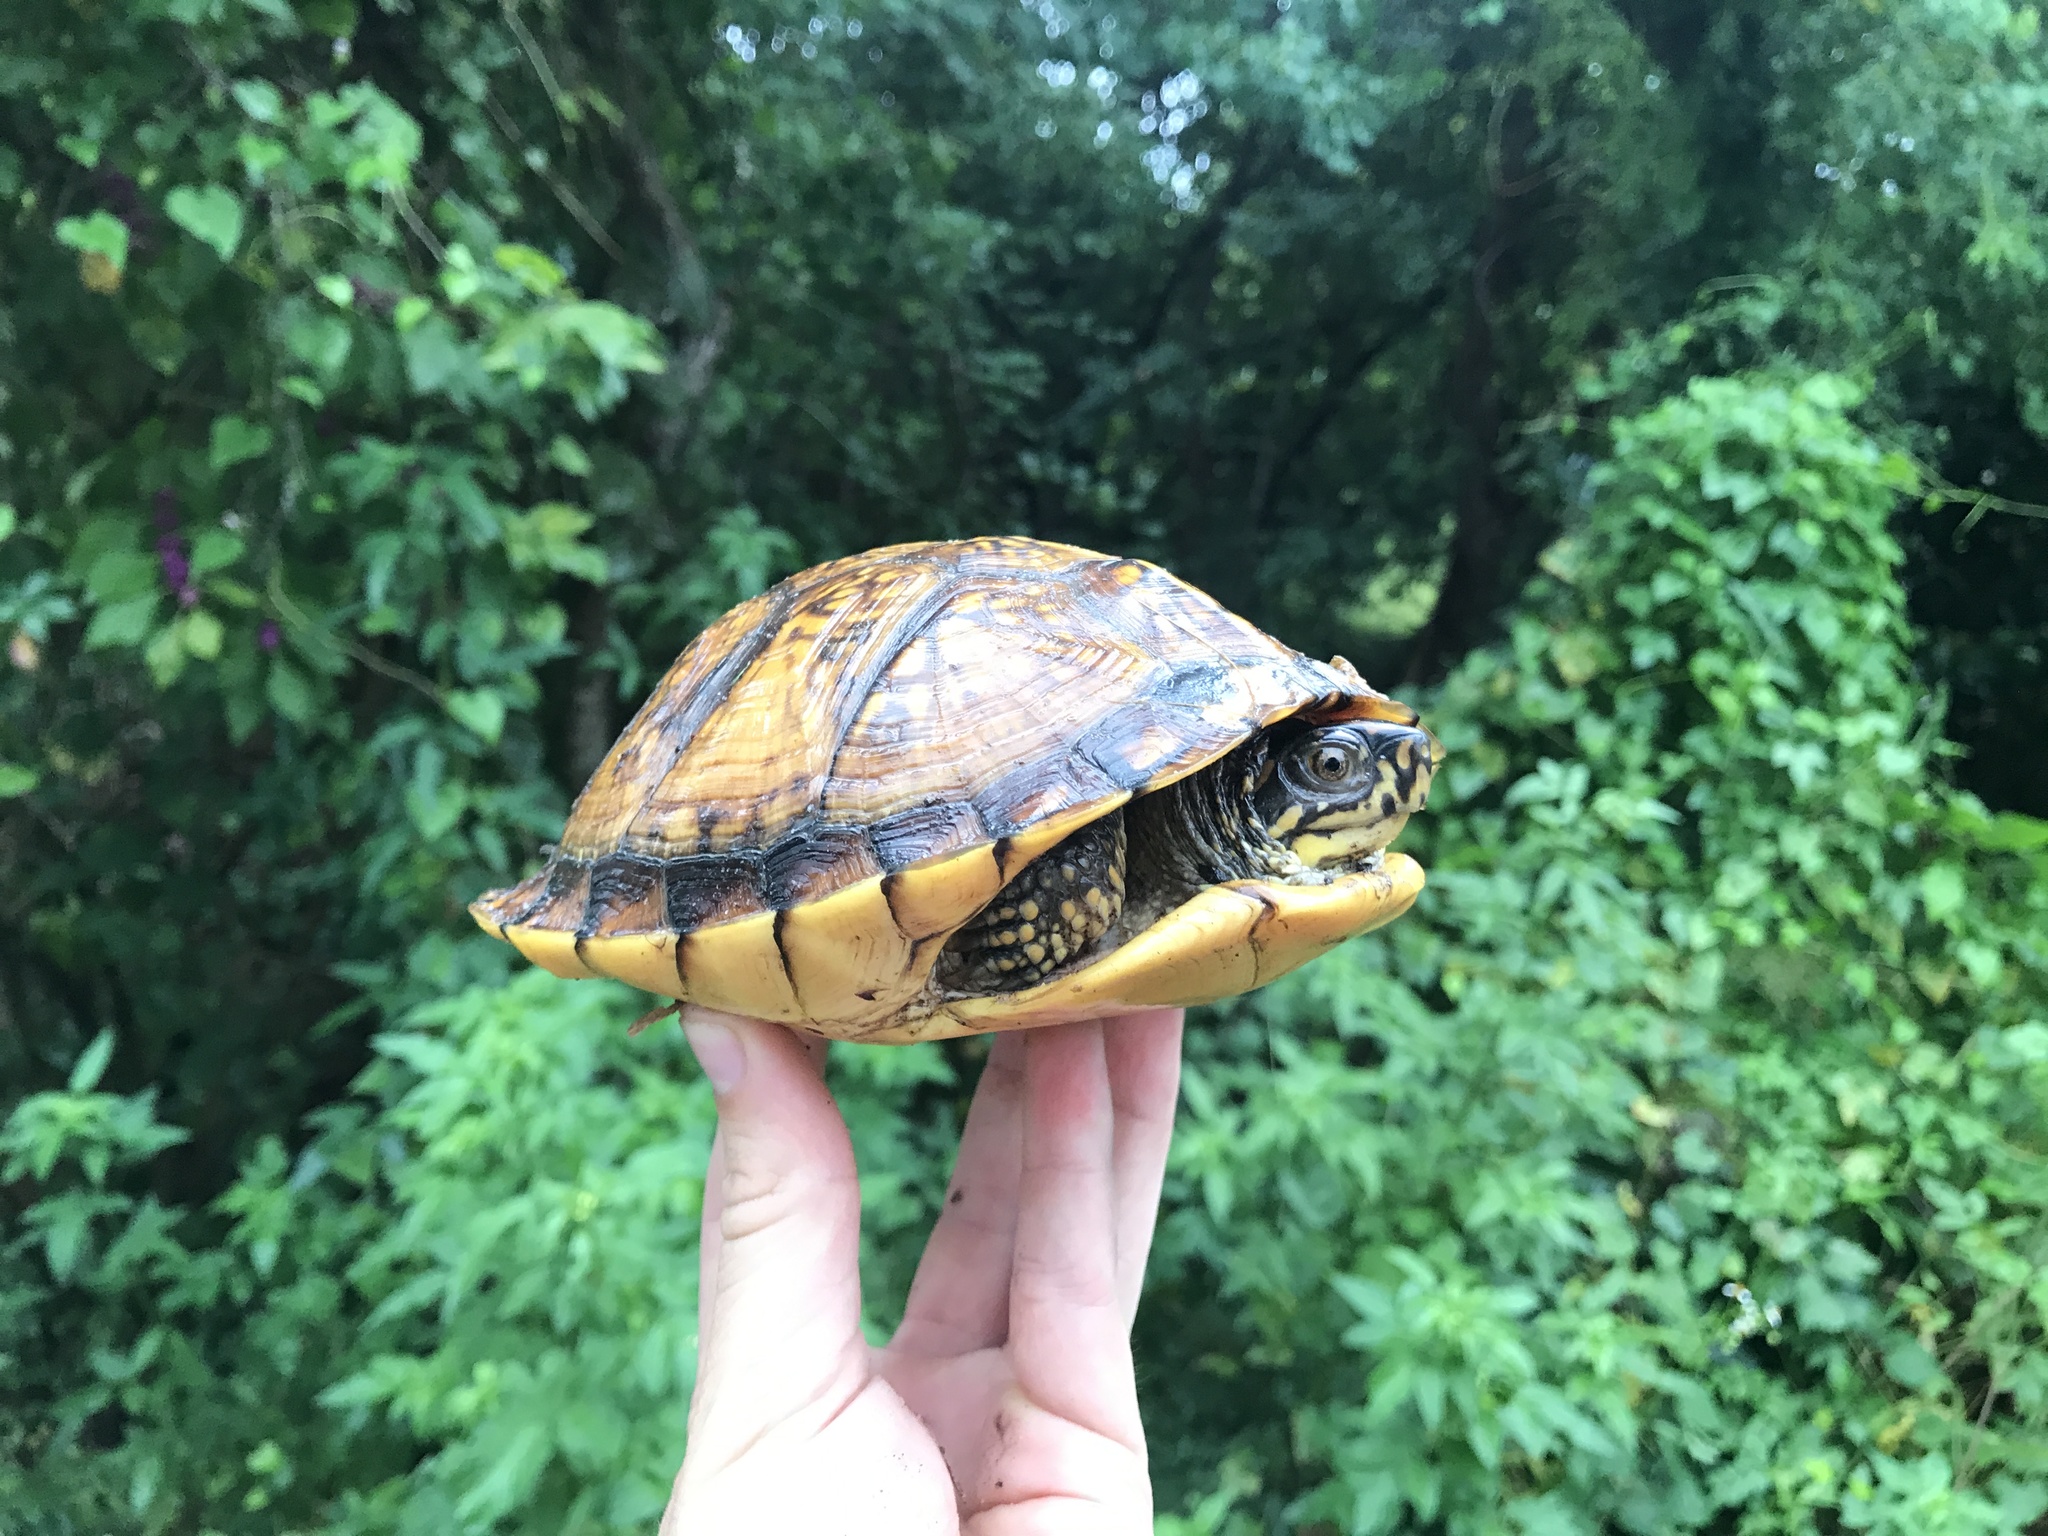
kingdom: Animalia
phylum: Chordata
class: Testudines
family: Emydidae
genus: Terrapene
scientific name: Terrapene carolina
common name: Common box turtle
